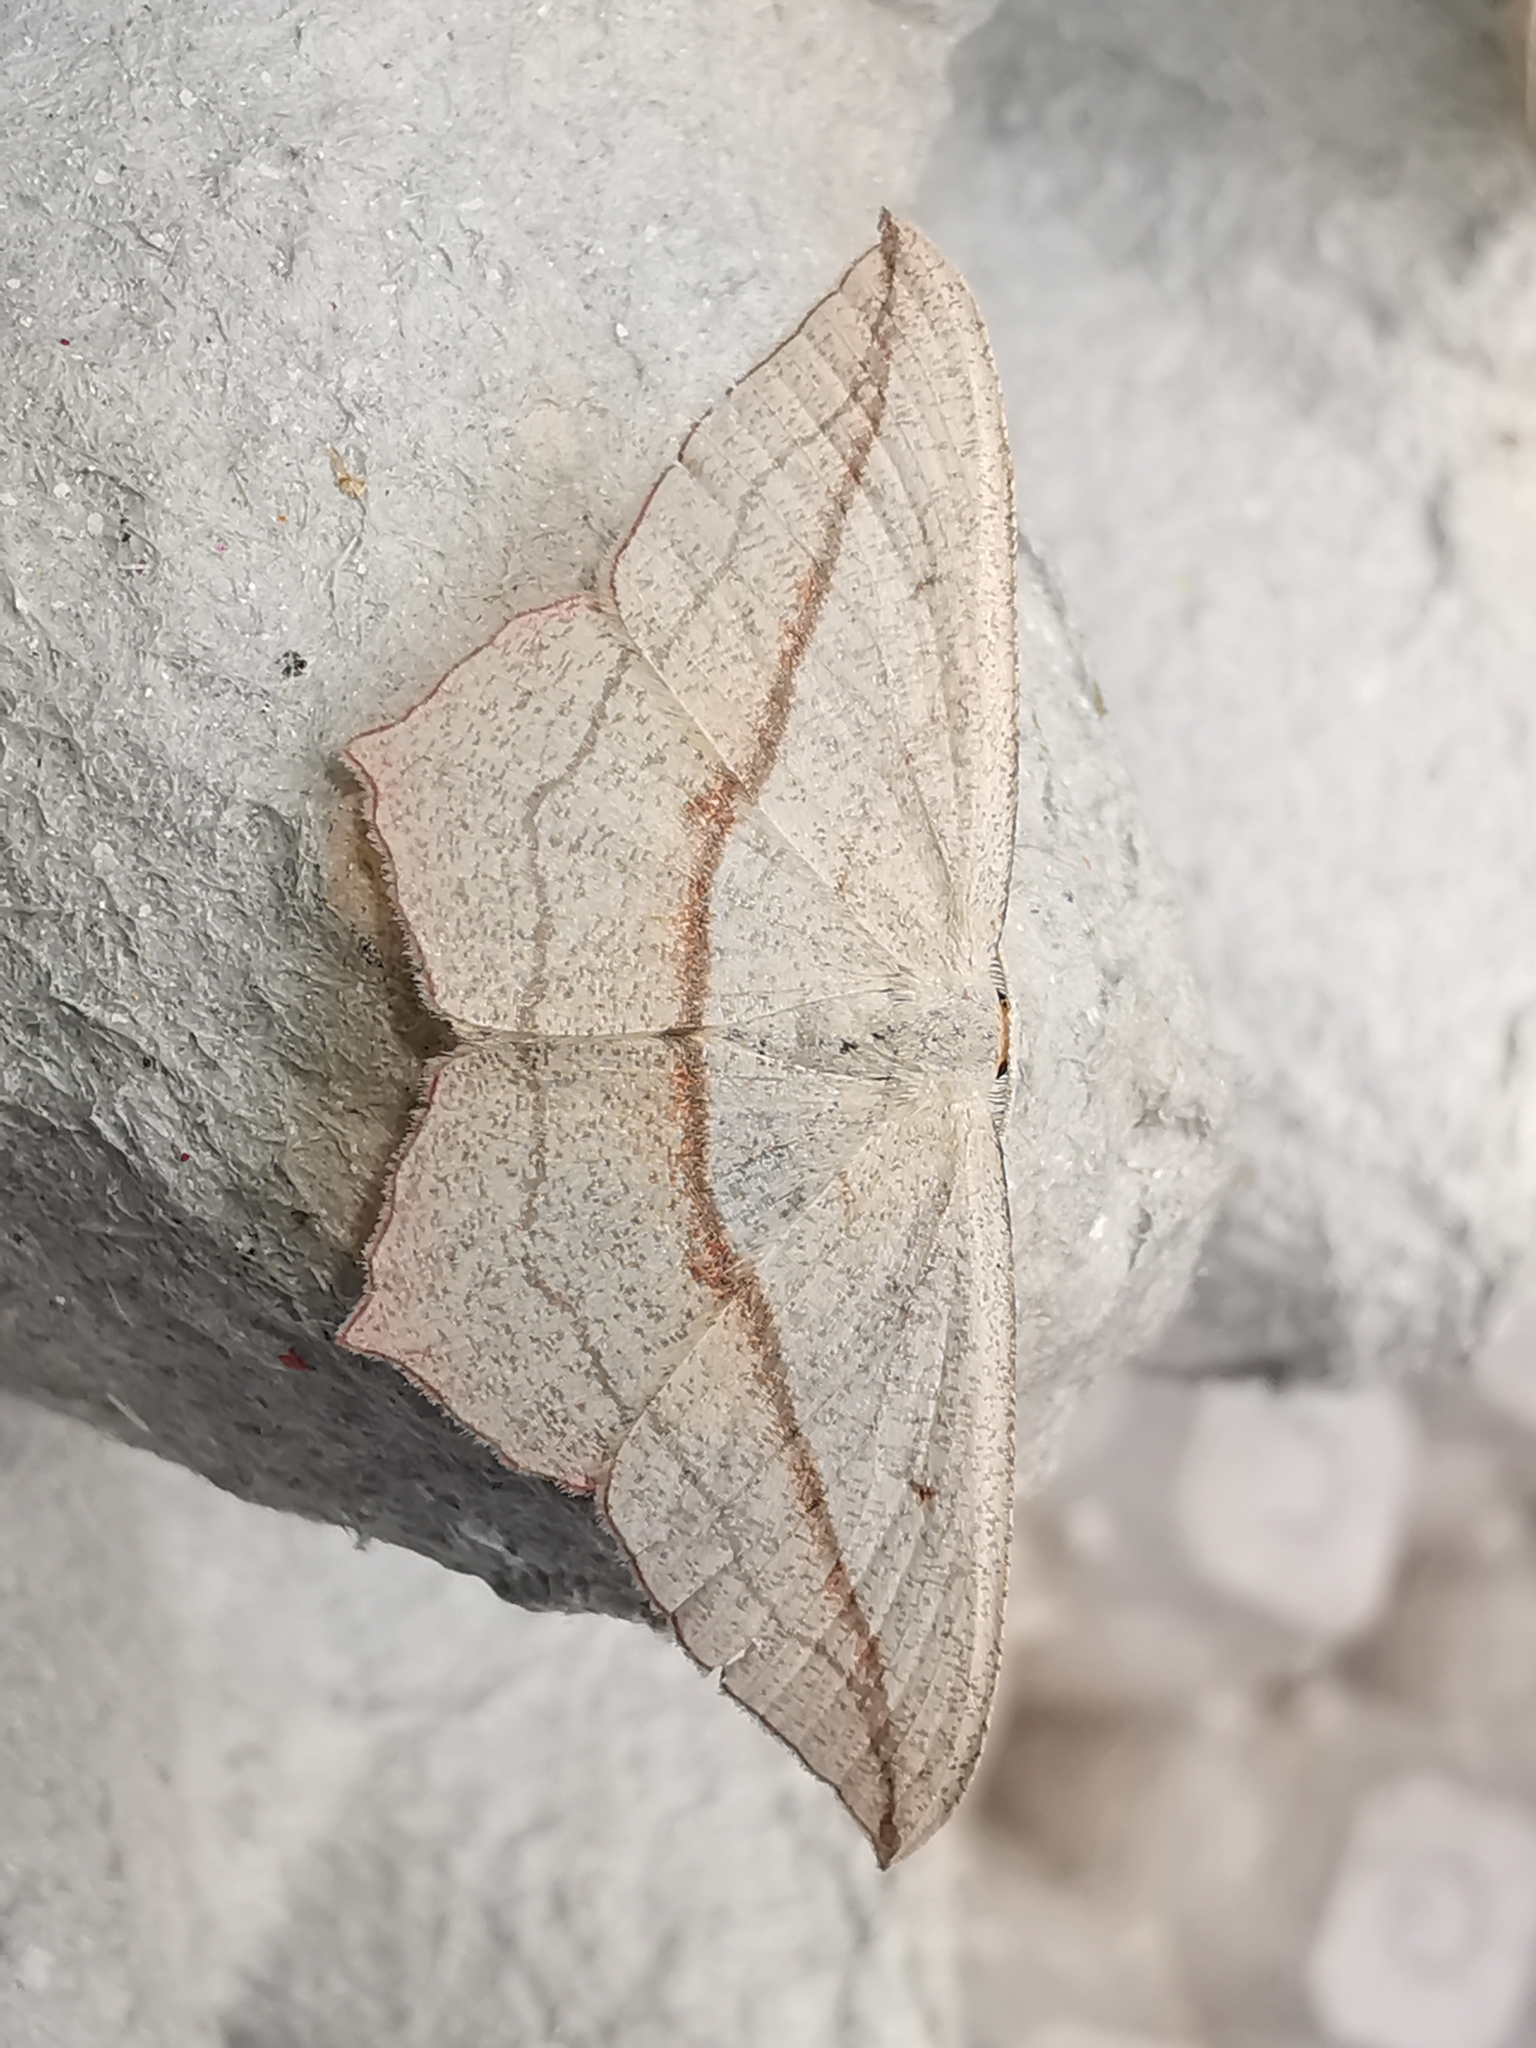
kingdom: Animalia
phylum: Arthropoda
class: Insecta
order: Lepidoptera
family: Geometridae
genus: Timandra
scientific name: Timandra comae
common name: Blood-vein
